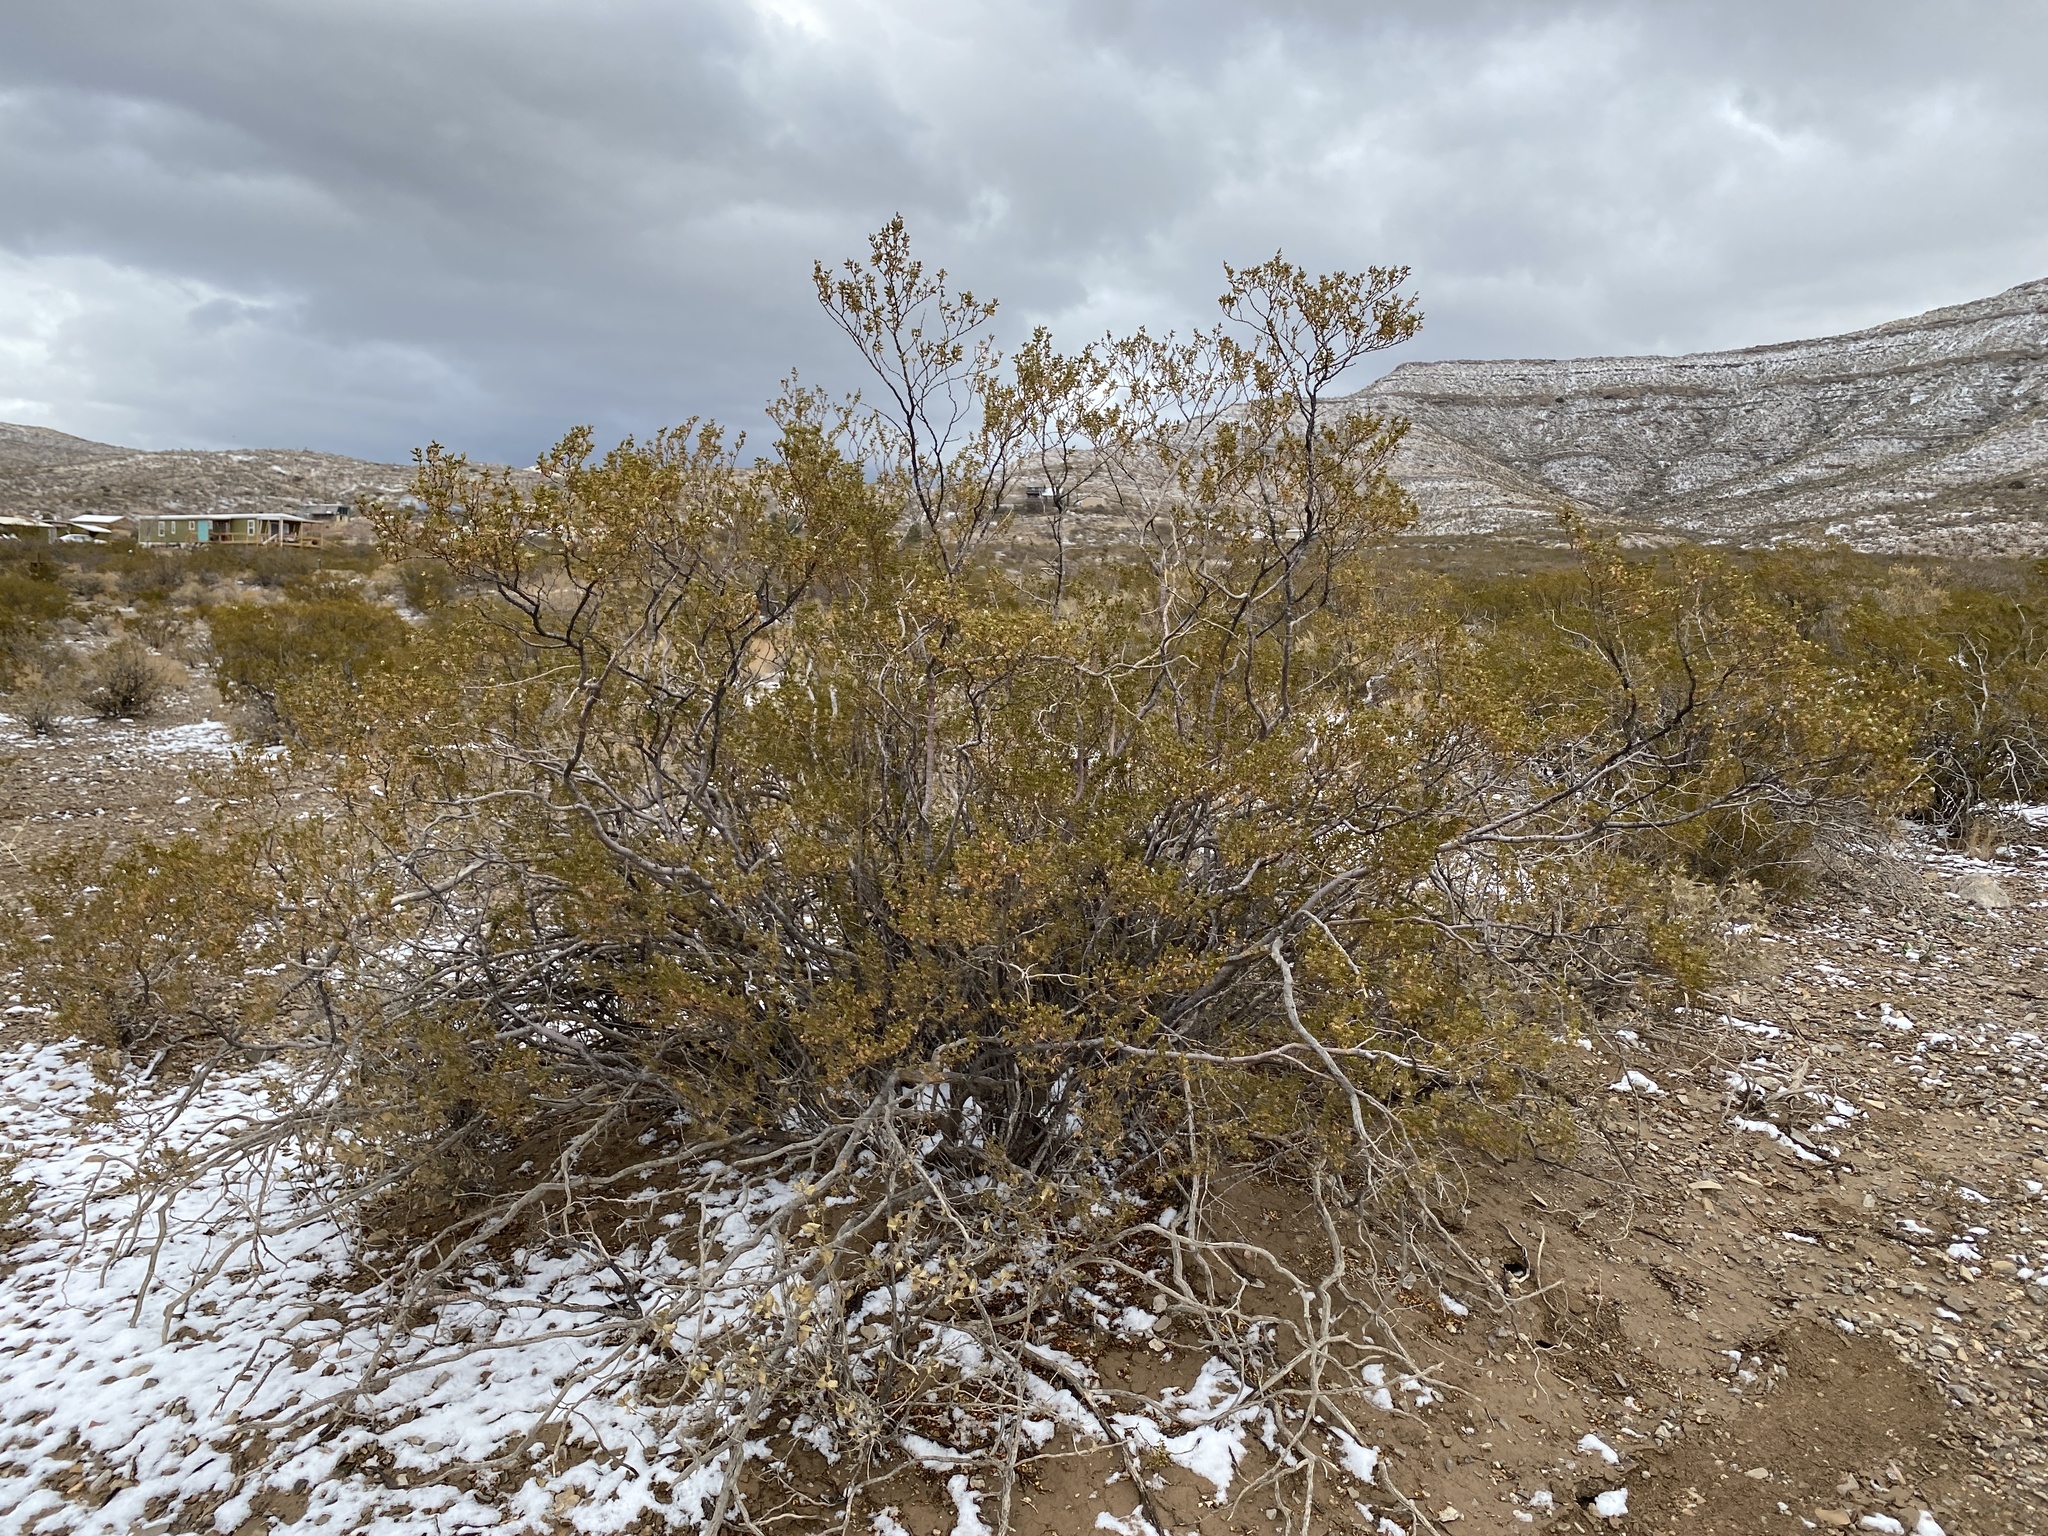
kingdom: Plantae
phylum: Tracheophyta
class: Magnoliopsida
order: Zygophyllales
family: Zygophyllaceae
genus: Larrea
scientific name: Larrea tridentata
